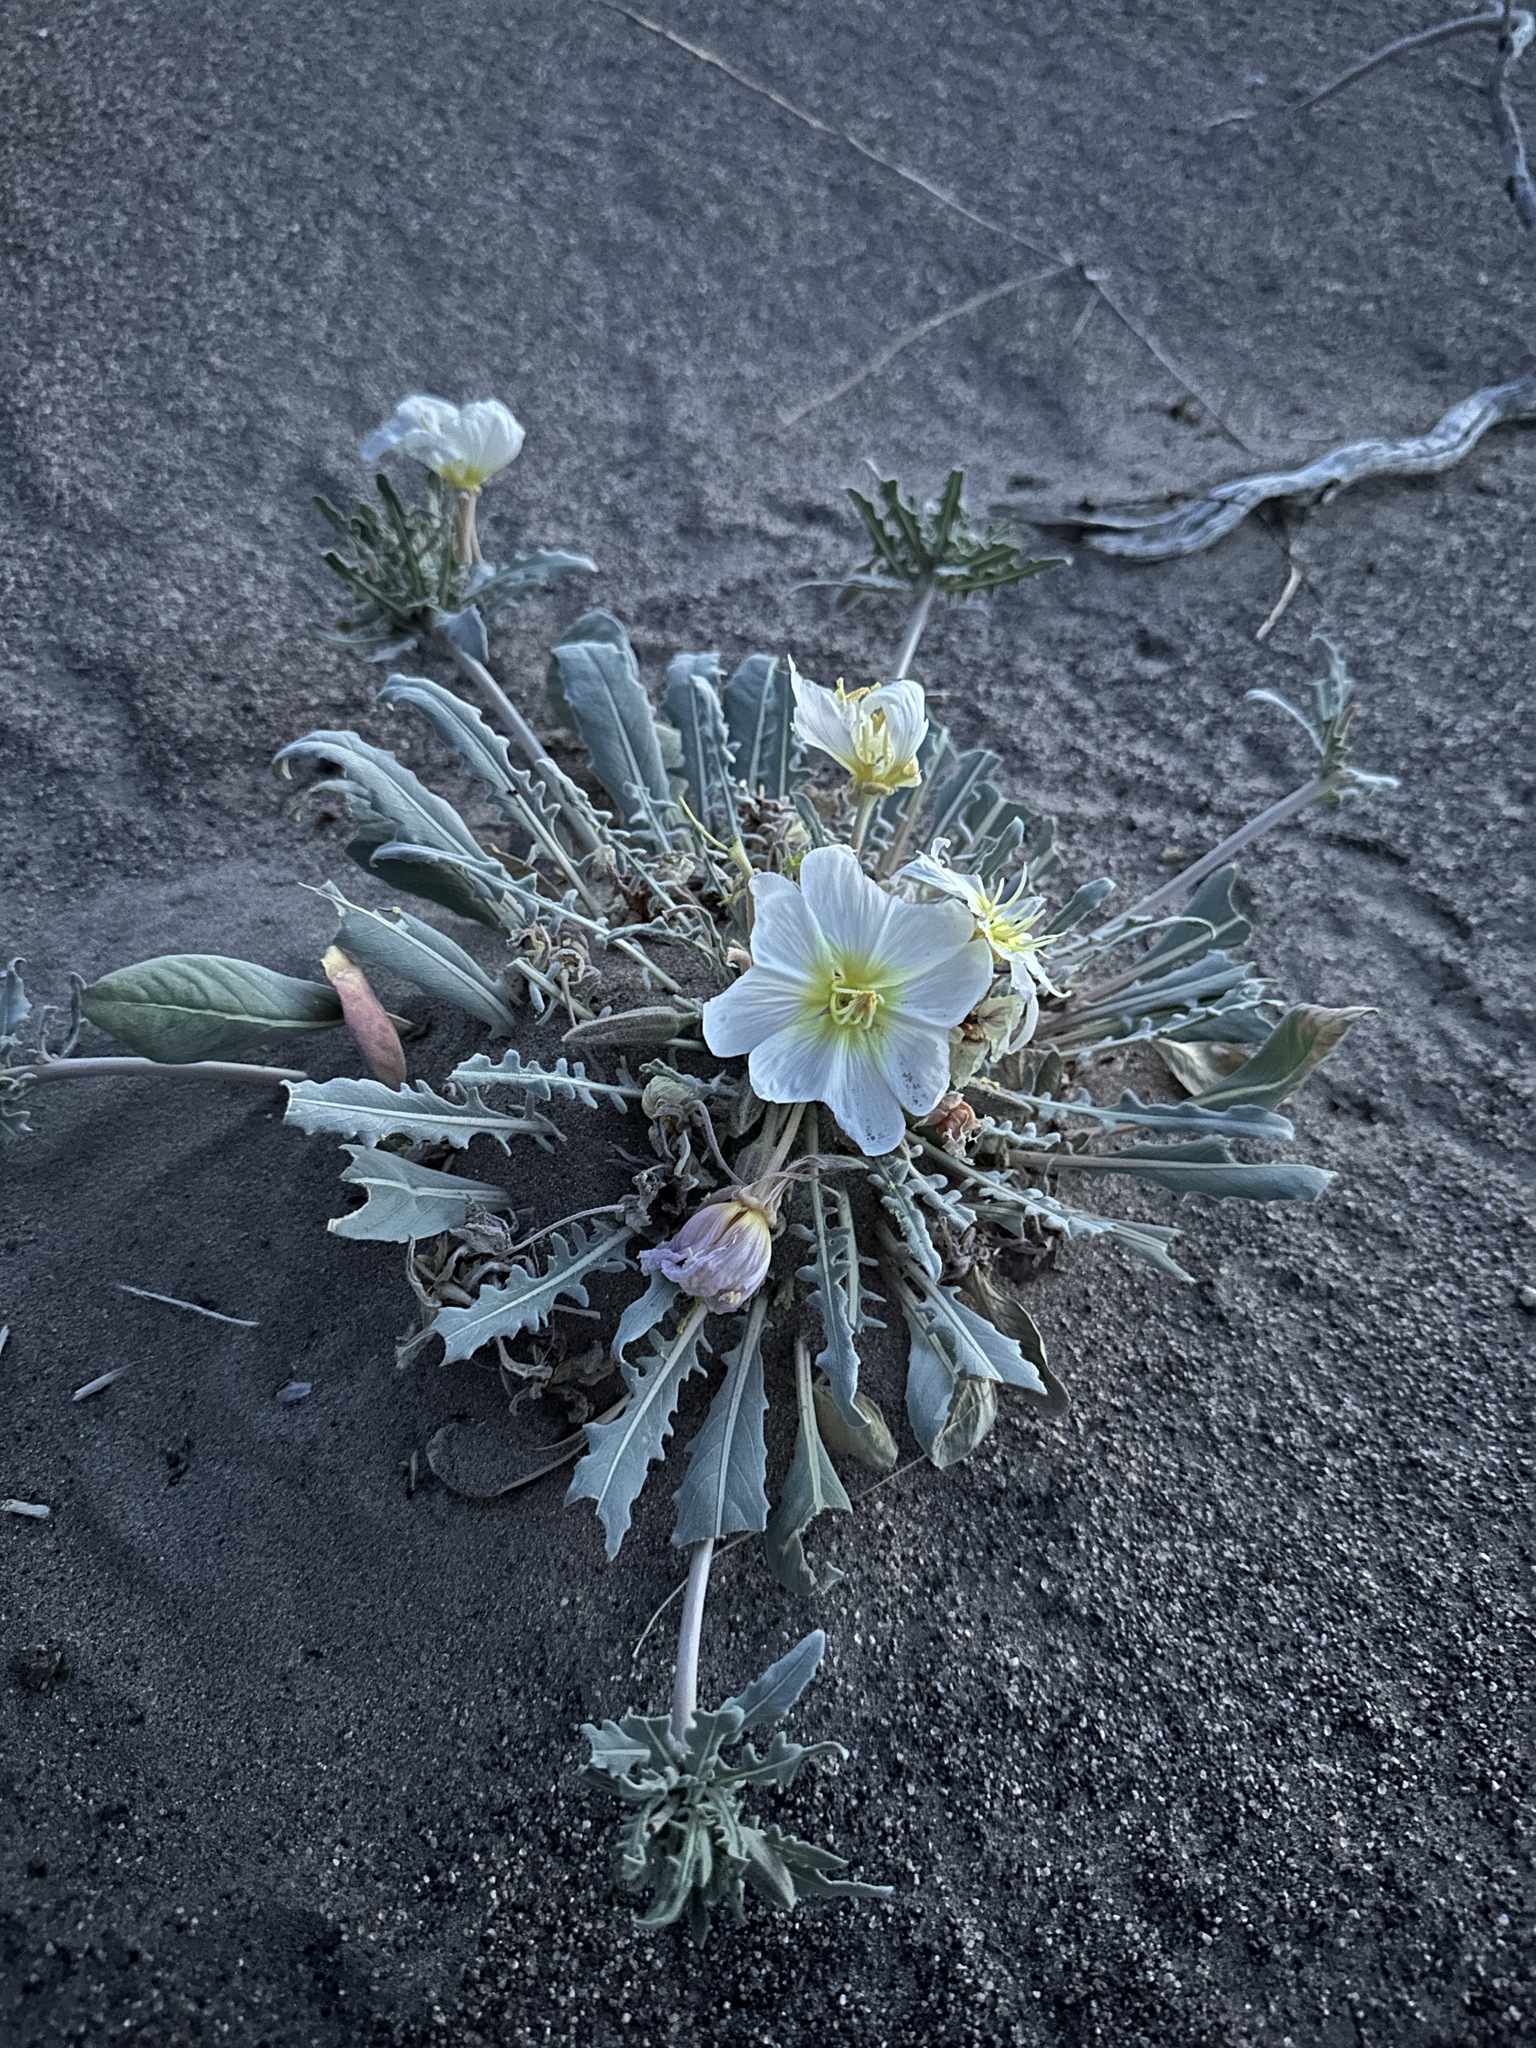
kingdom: Plantae
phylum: Tracheophyta
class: Magnoliopsida
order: Myrtales
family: Onagraceae
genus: Oenothera
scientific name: Oenothera deltoides
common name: Basket evening-primrose
